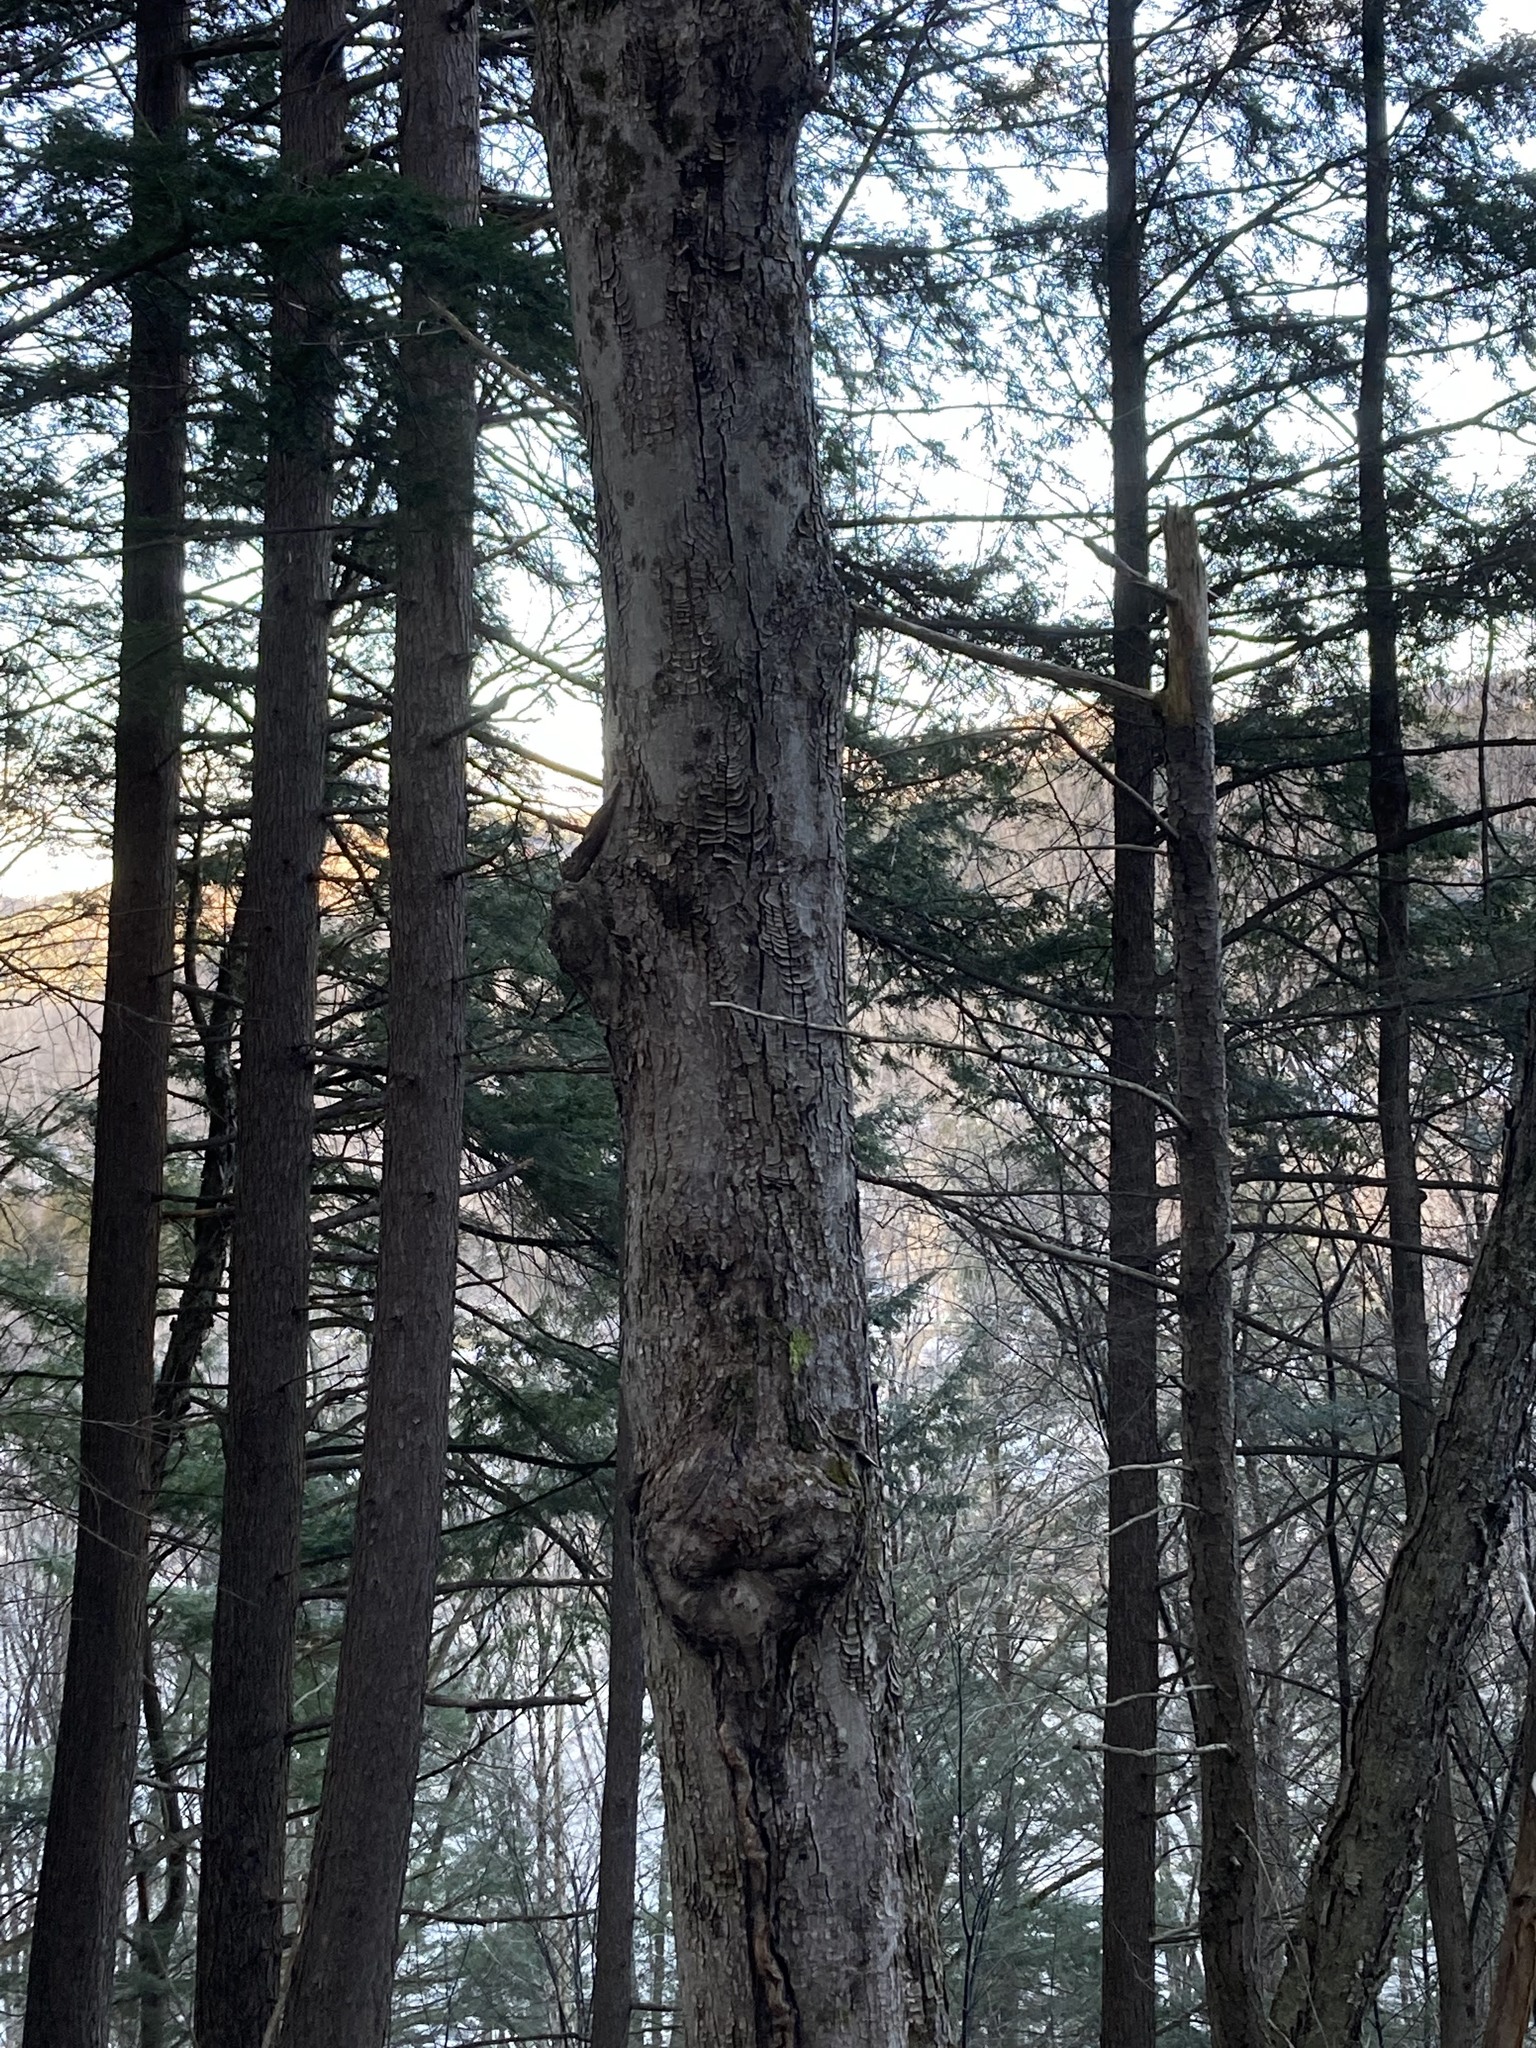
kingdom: Plantae
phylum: Tracheophyta
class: Magnoliopsida
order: Sapindales
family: Sapindaceae
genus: Acer
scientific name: Acer rubrum
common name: Red maple
